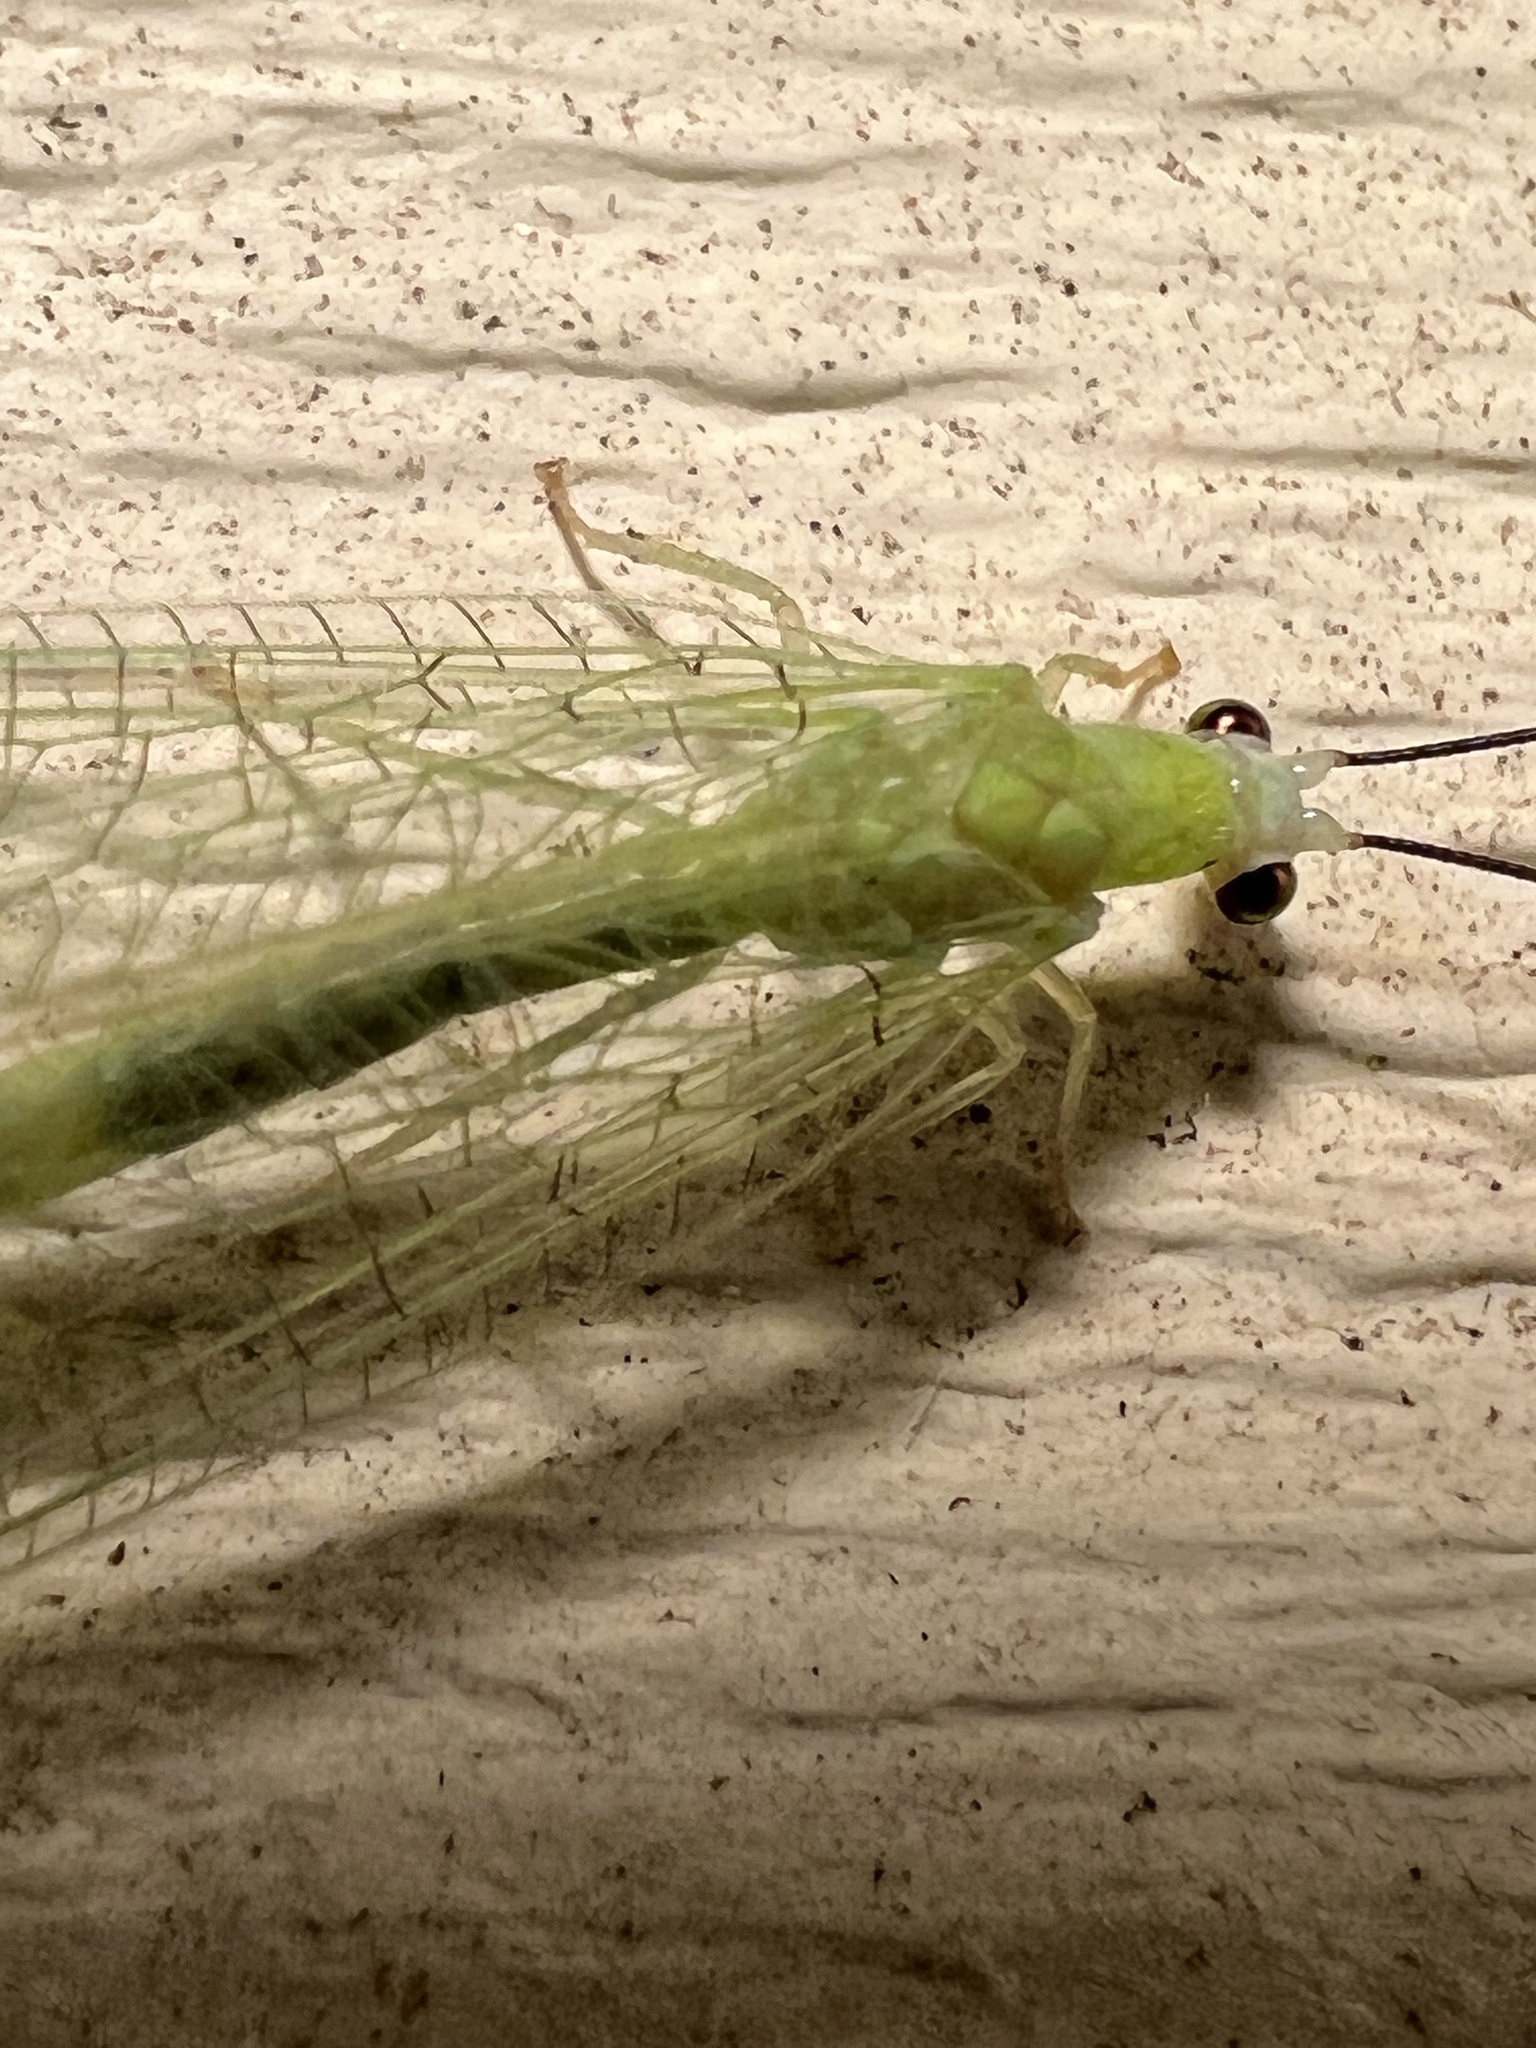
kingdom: Animalia
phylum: Arthropoda
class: Insecta
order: Neuroptera
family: Chrysopidae
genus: Chrysopa
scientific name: Chrysopa nigricornis
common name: Black-horned green lacewing
